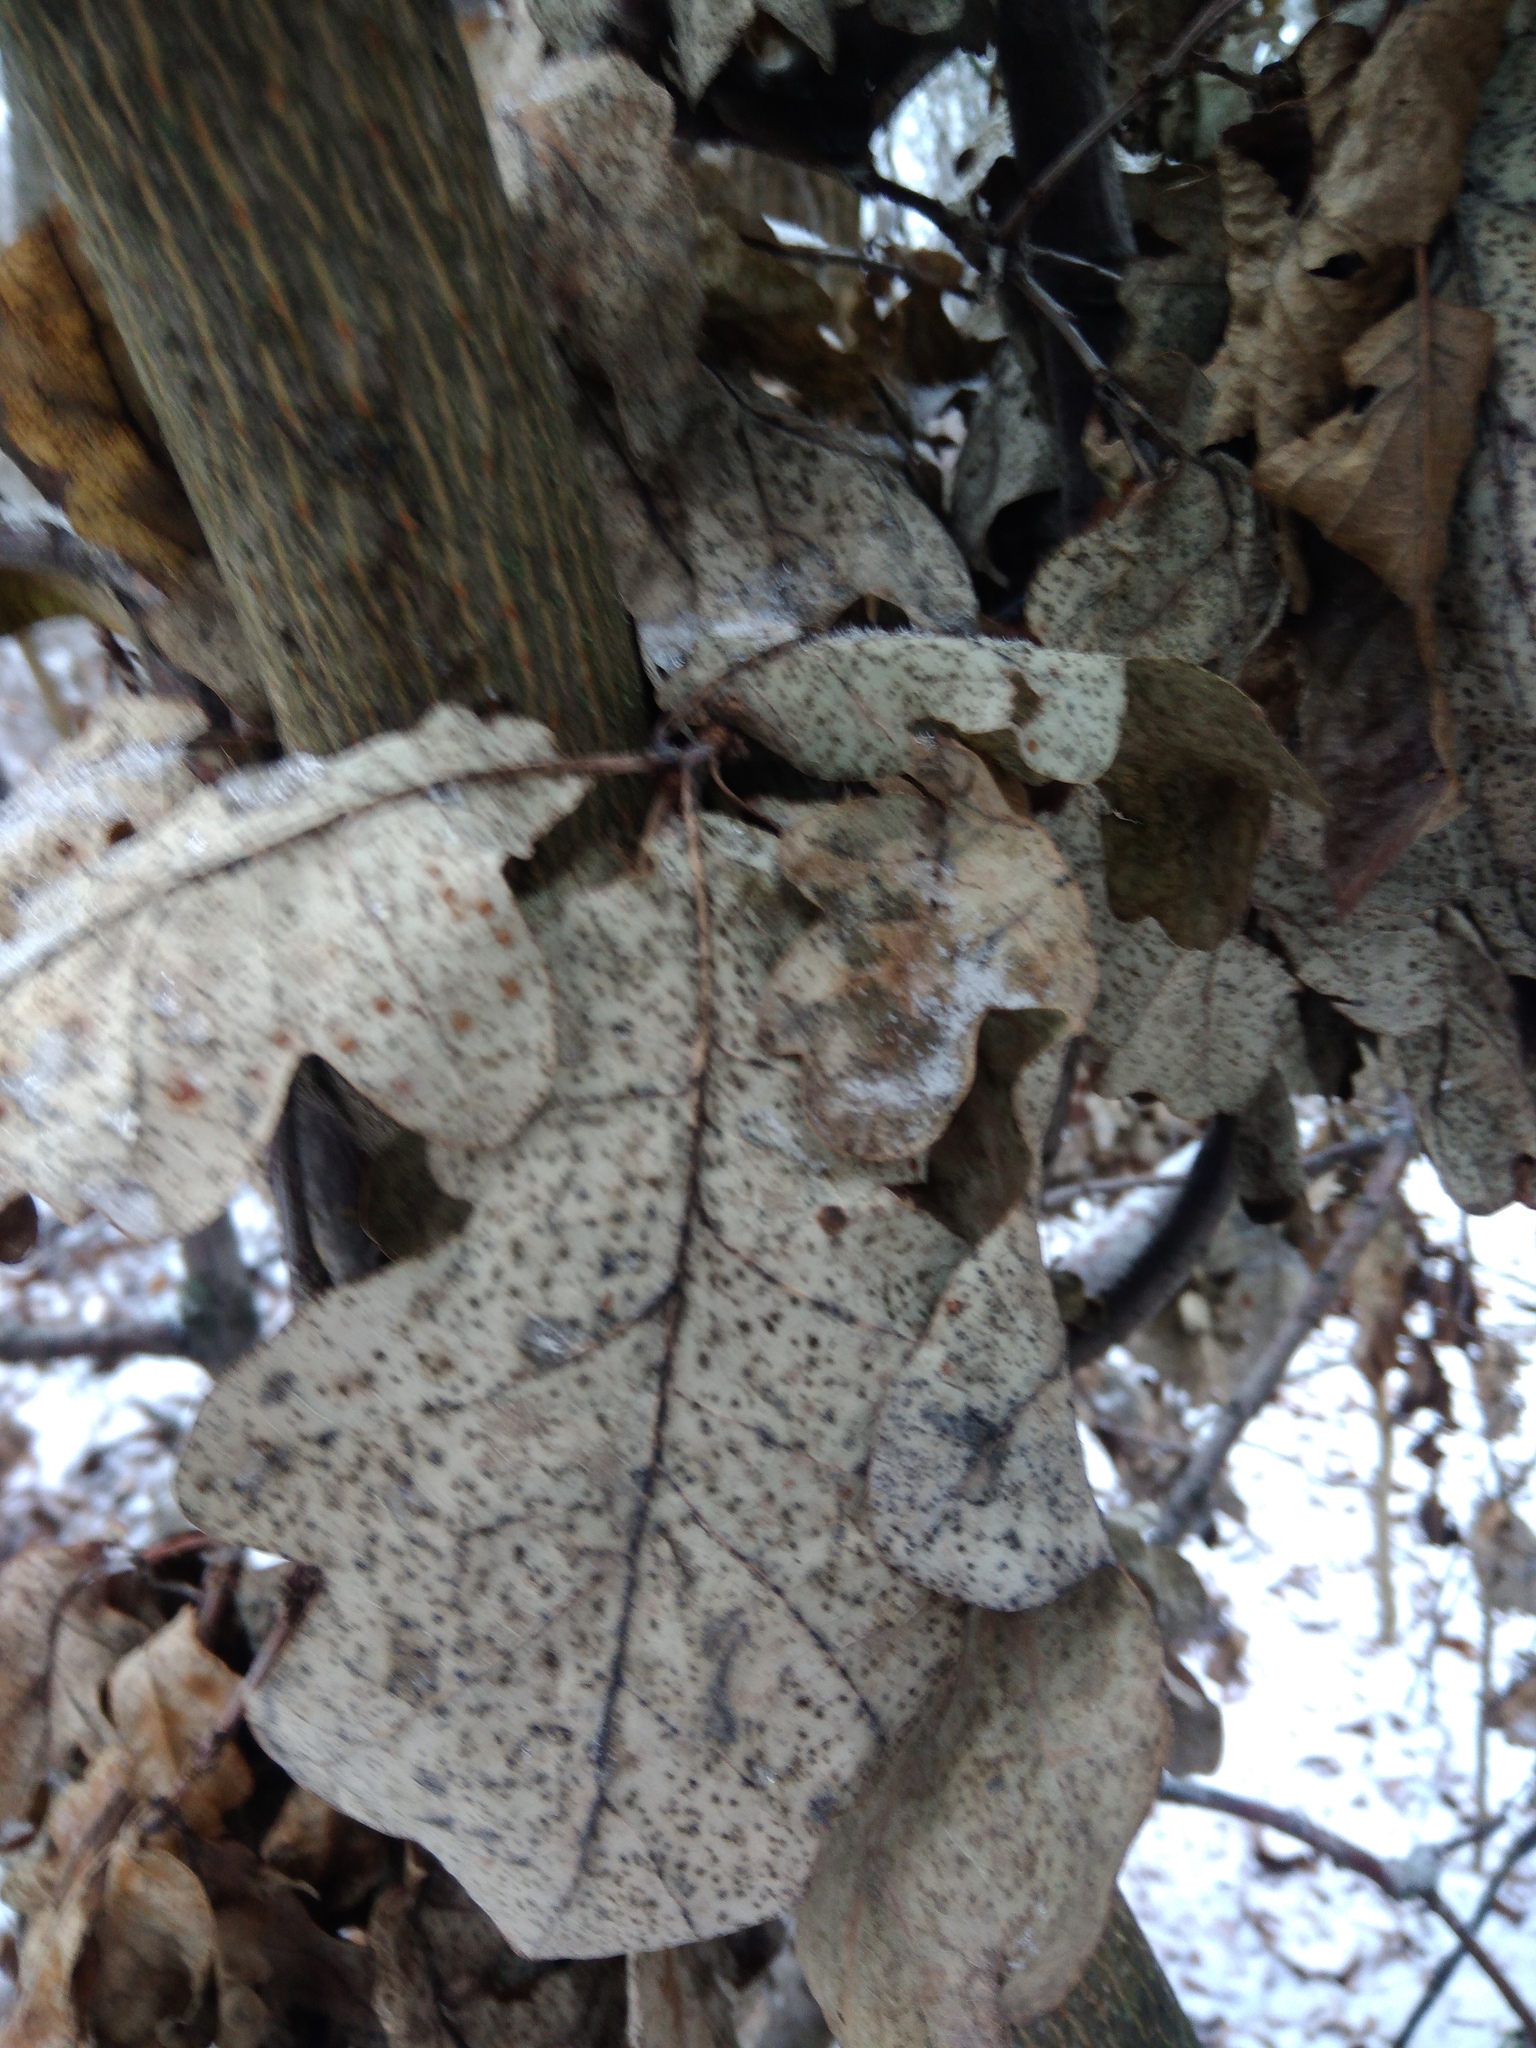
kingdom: Plantae
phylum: Tracheophyta
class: Magnoliopsida
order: Fagales
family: Fagaceae
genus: Quercus
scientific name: Quercus robur
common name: Pedunculate oak
